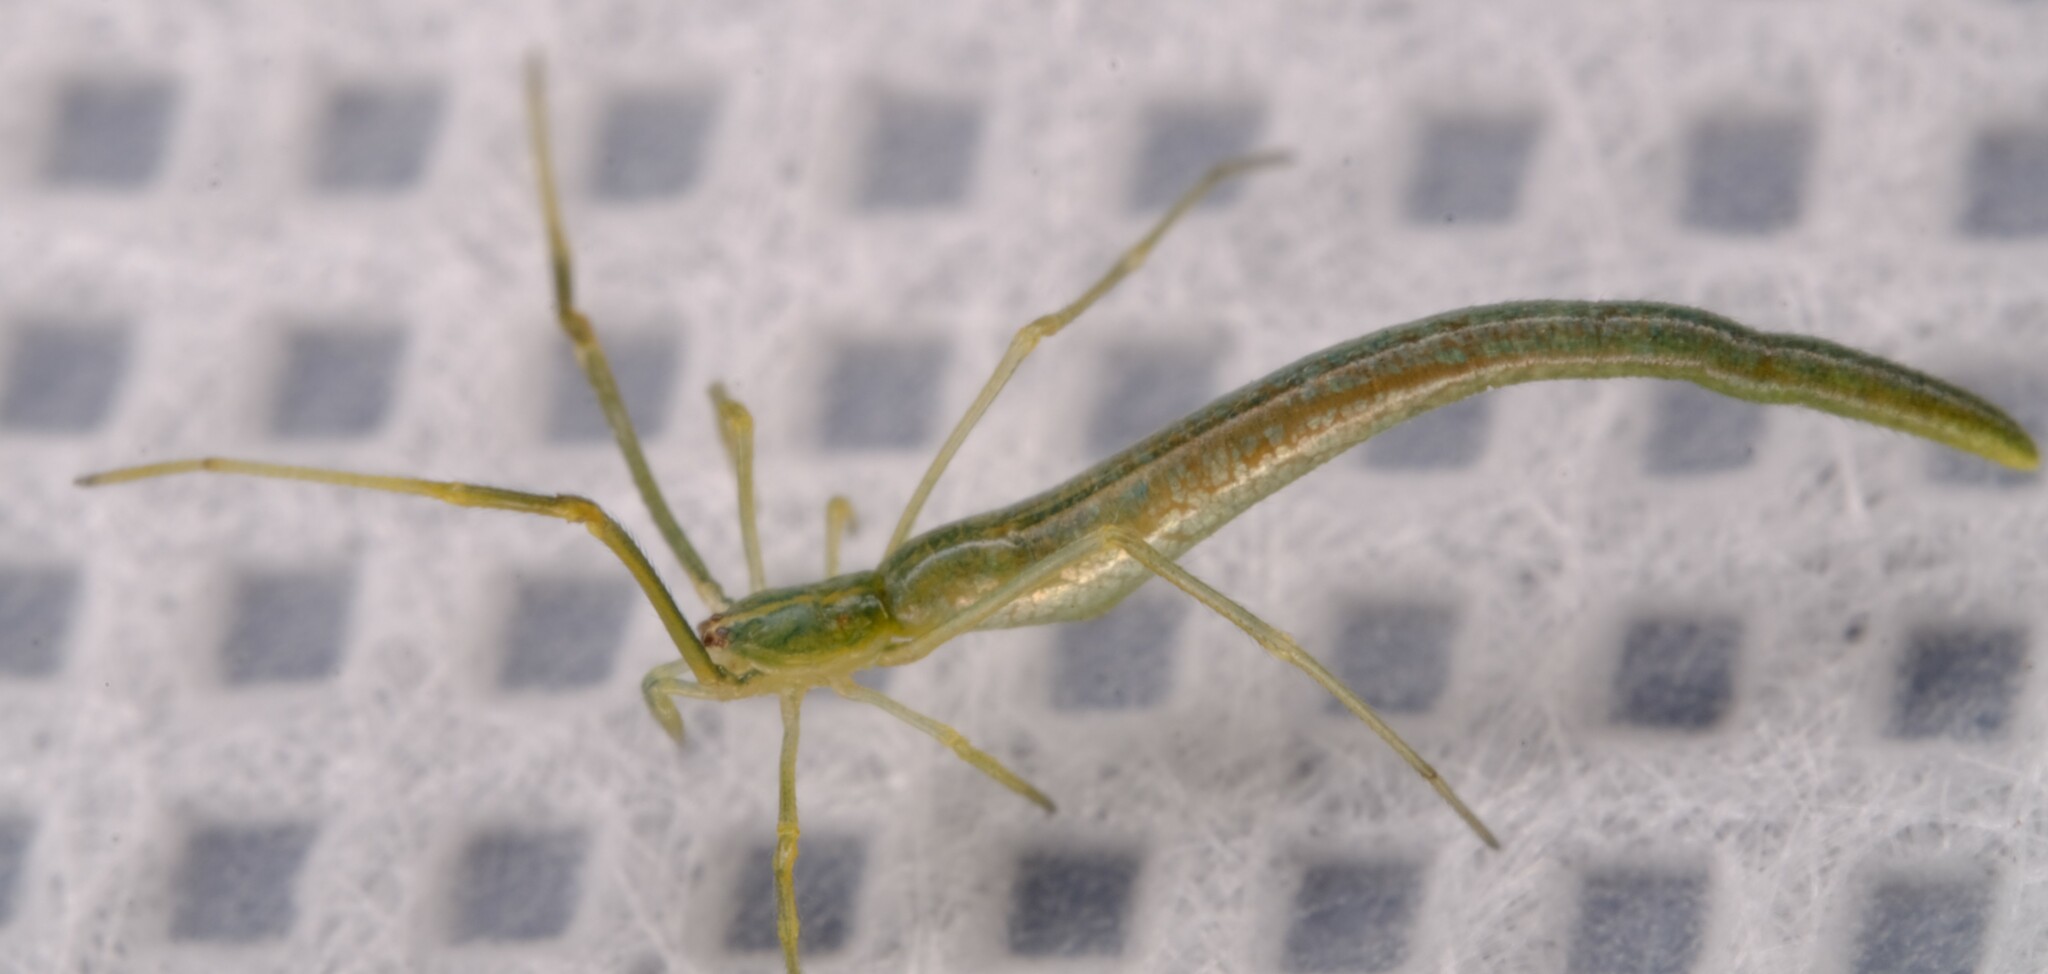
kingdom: Animalia
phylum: Arthropoda
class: Arachnida
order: Araneae
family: Theridiidae
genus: Ariamnes
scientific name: Ariamnes colubrinus
